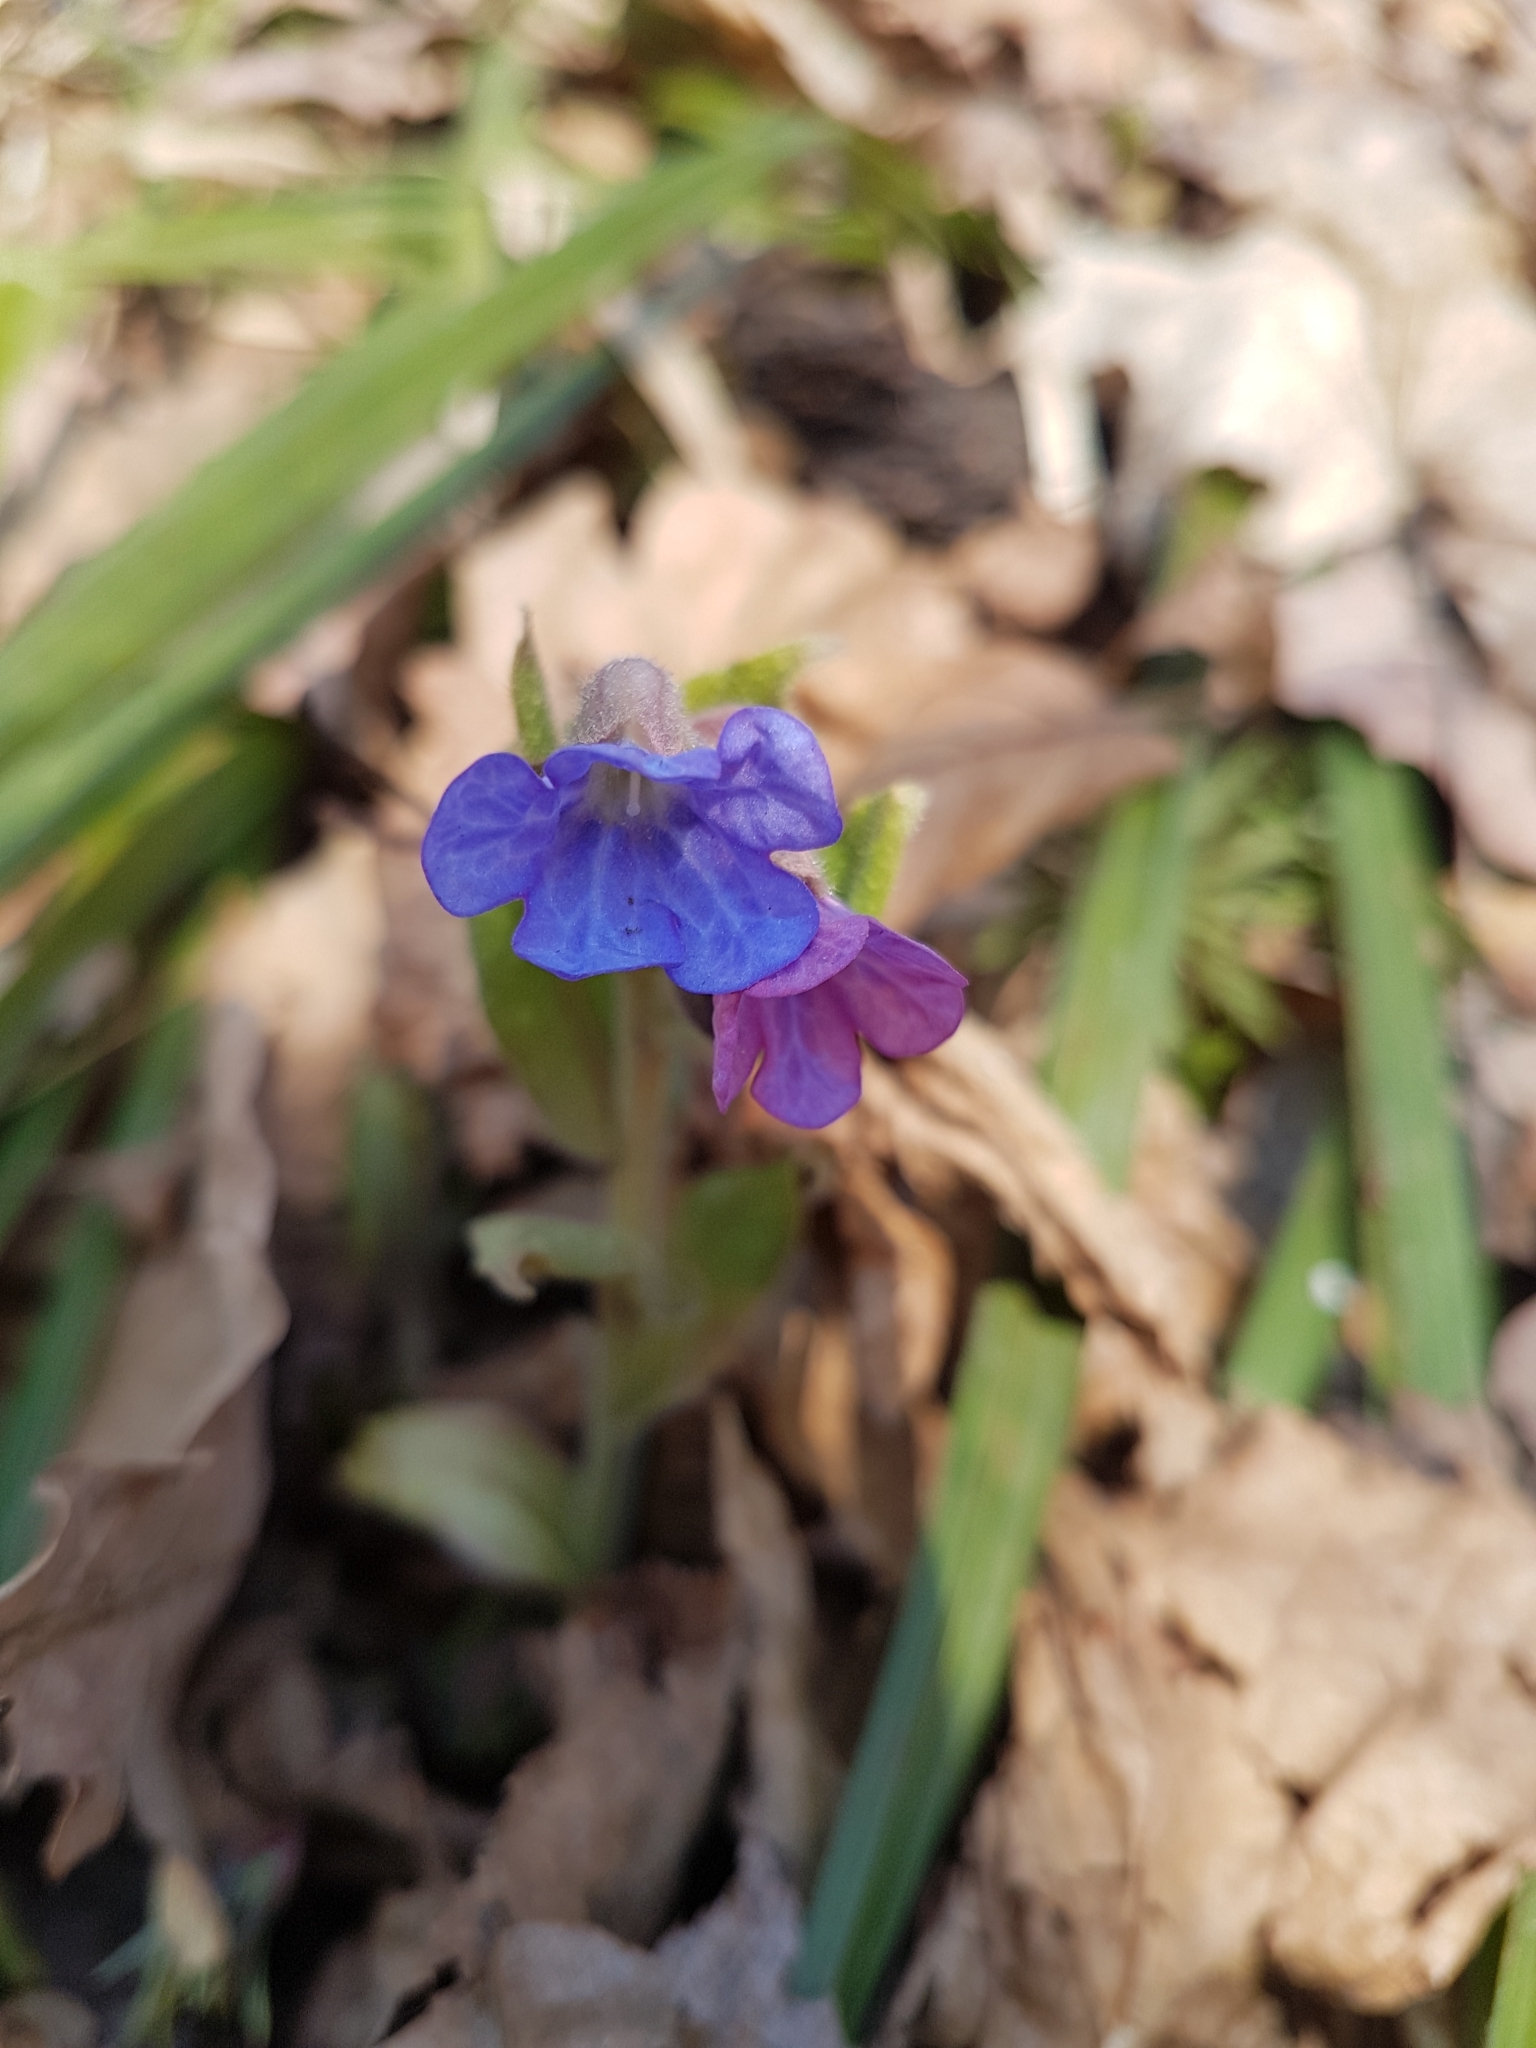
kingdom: Plantae
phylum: Tracheophyta
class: Magnoliopsida
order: Boraginales
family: Boraginaceae
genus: Pulmonaria
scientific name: Pulmonaria obscura
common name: Suffolk lungwort
